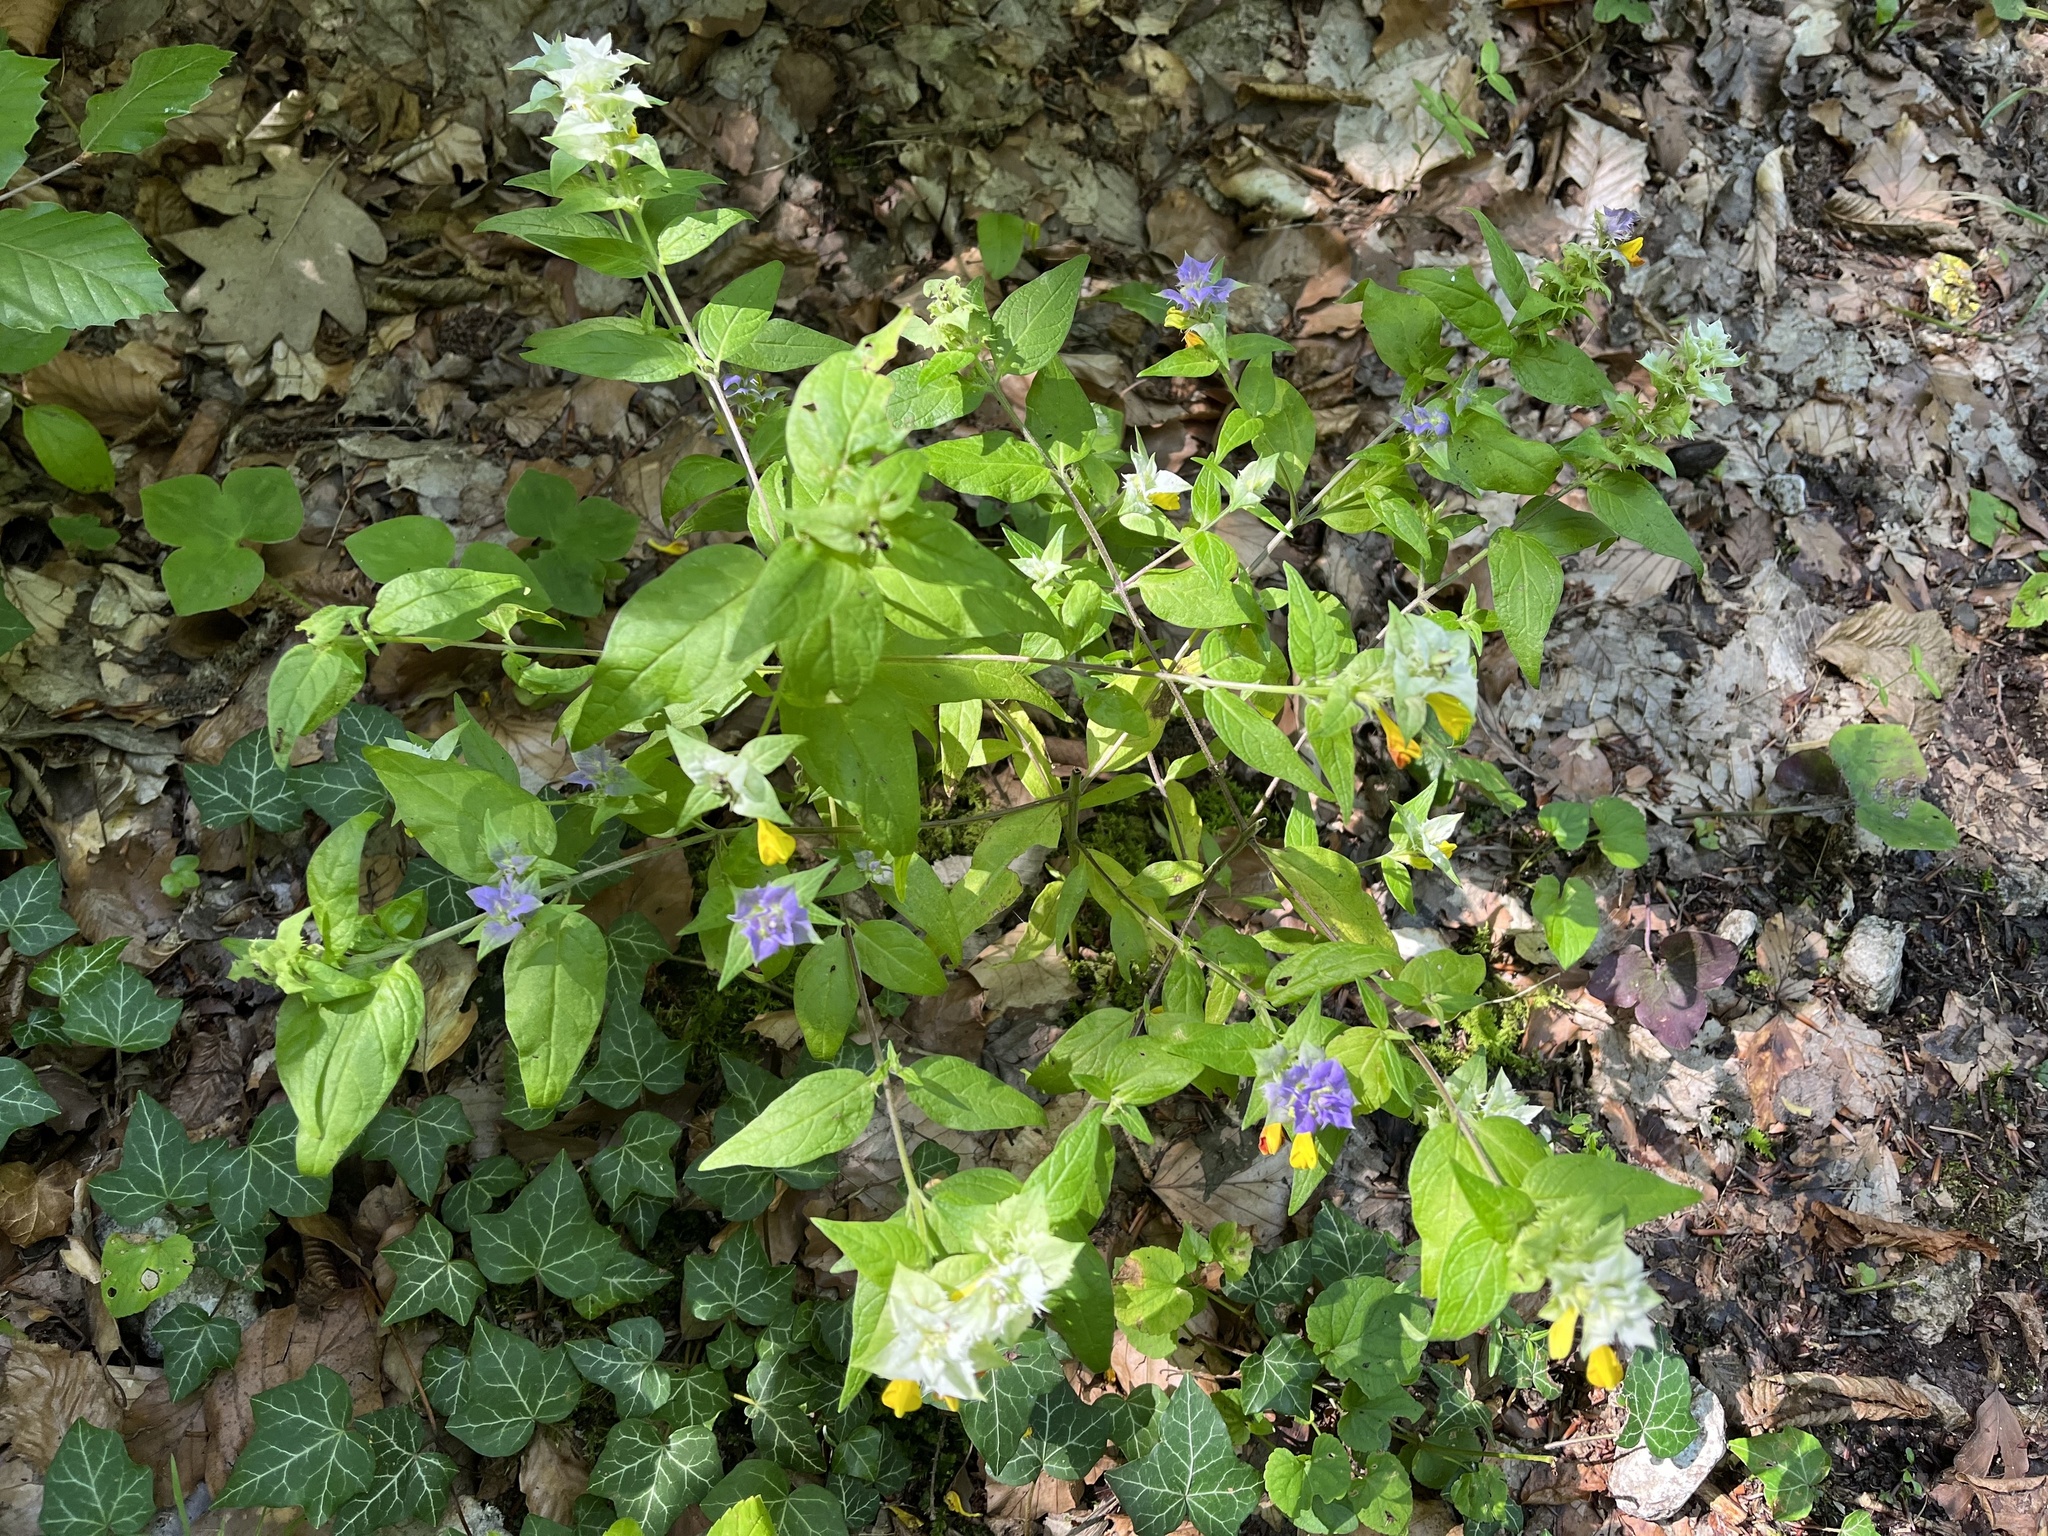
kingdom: Plantae
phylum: Tracheophyta
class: Magnoliopsida
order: Lamiales
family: Orobanchaceae
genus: Melampyrum
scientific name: Melampyrum nemorosum
